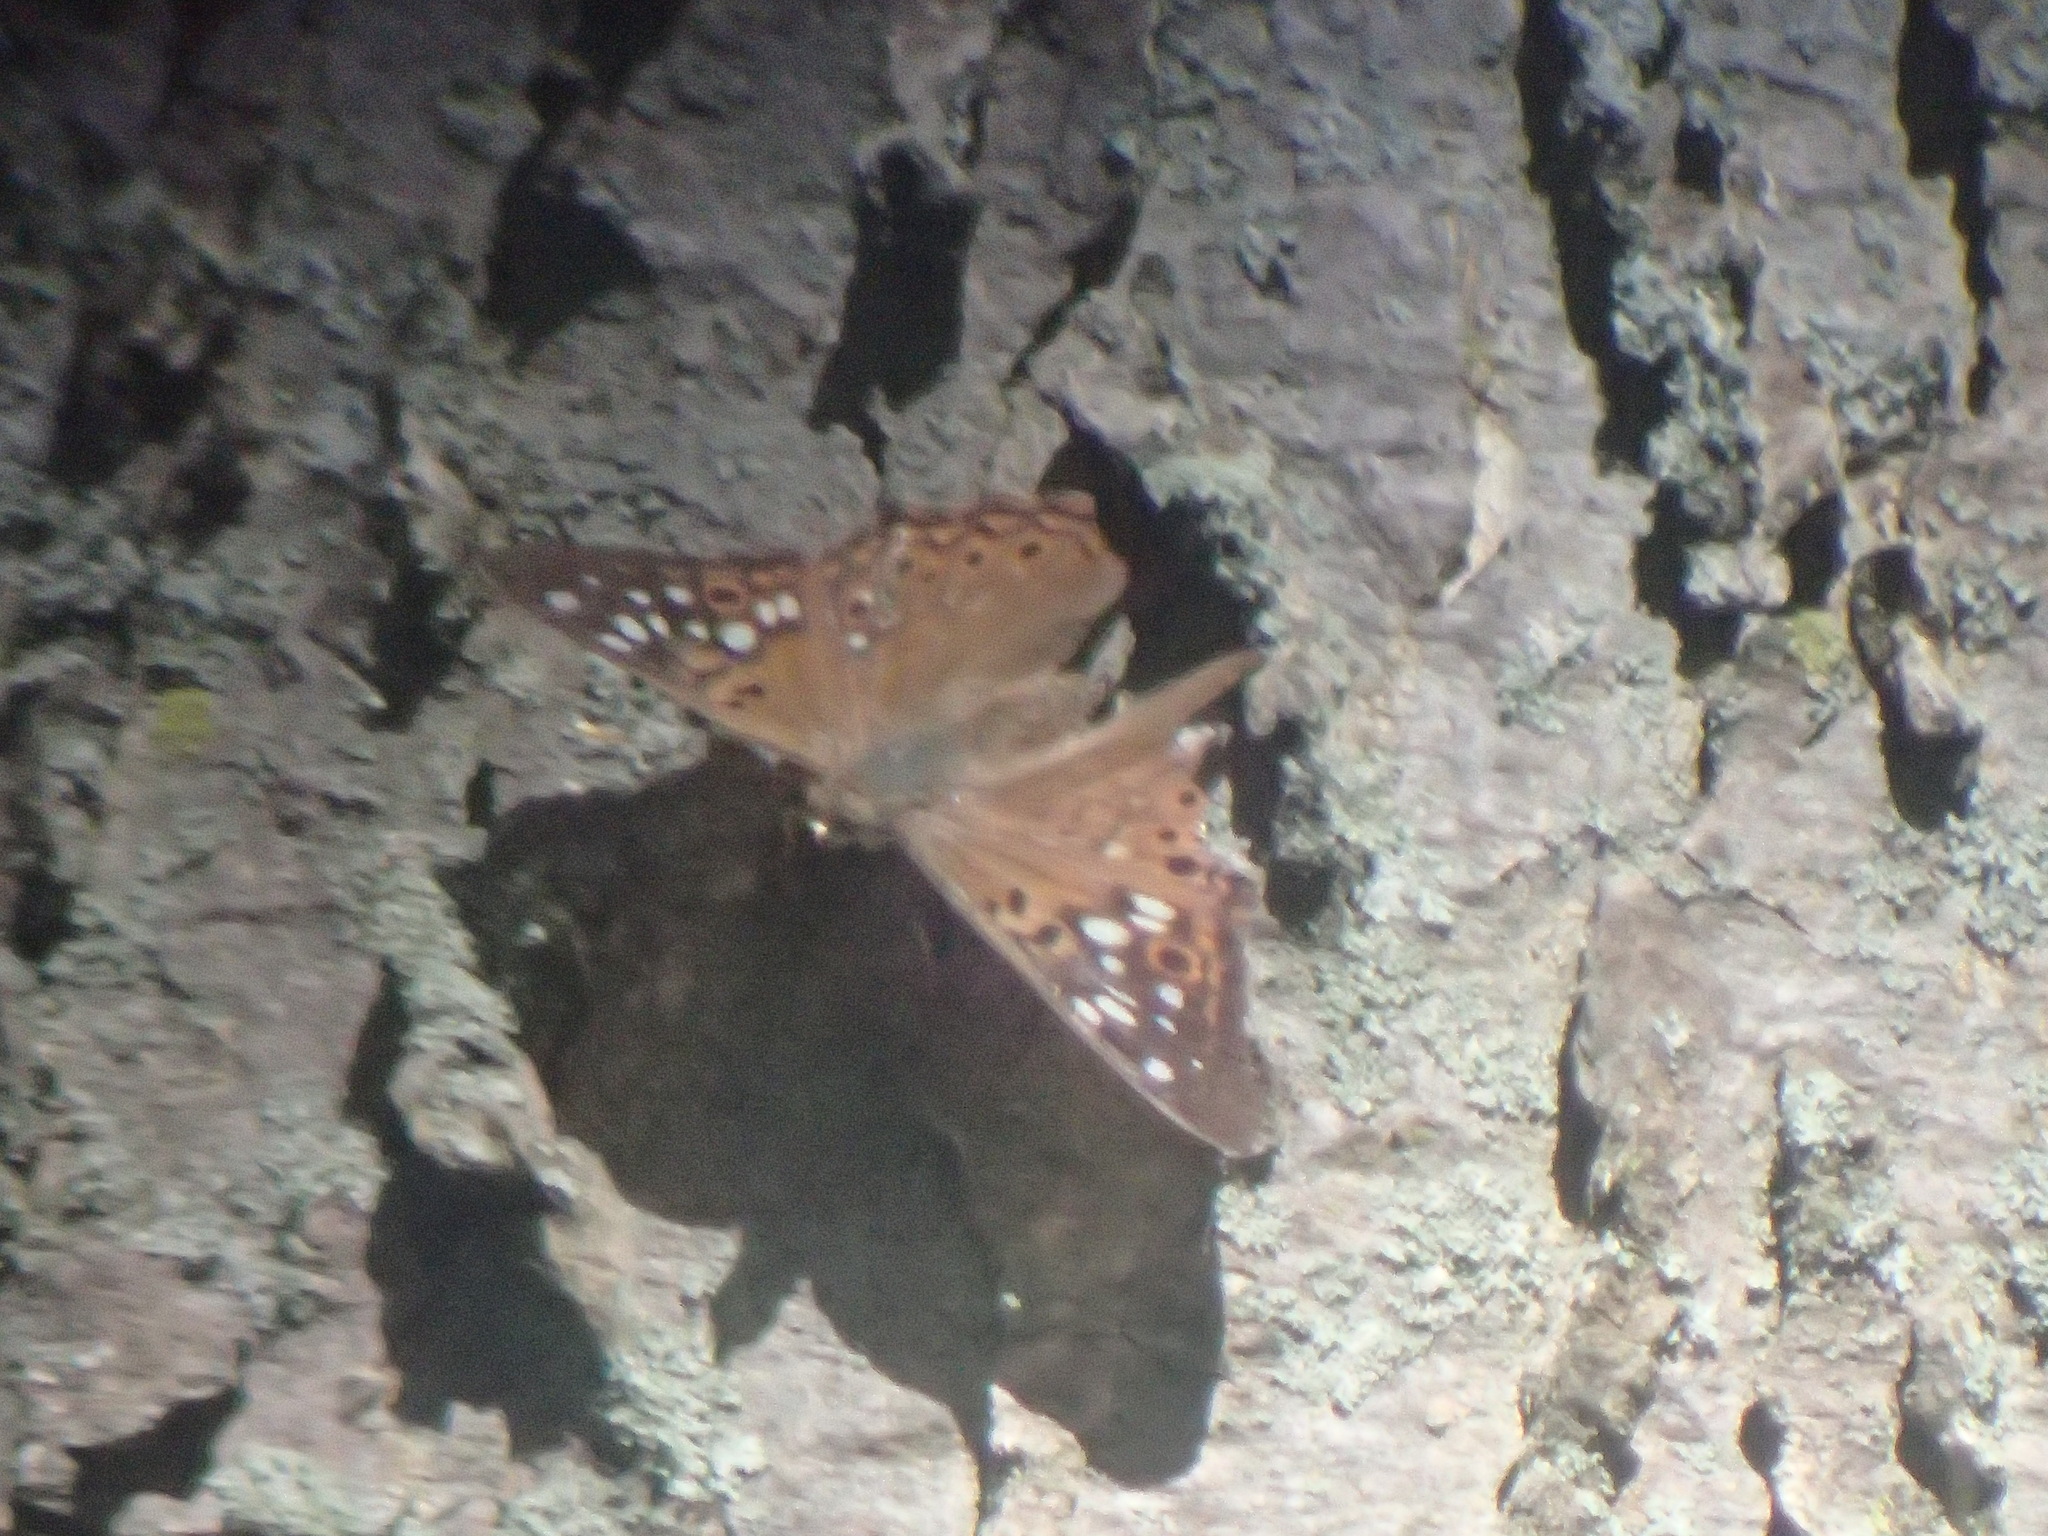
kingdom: Animalia
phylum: Arthropoda
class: Insecta
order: Lepidoptera
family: Nymphalidae
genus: Asterocampa
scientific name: Asterocampa celtis
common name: Hackberry emperor
